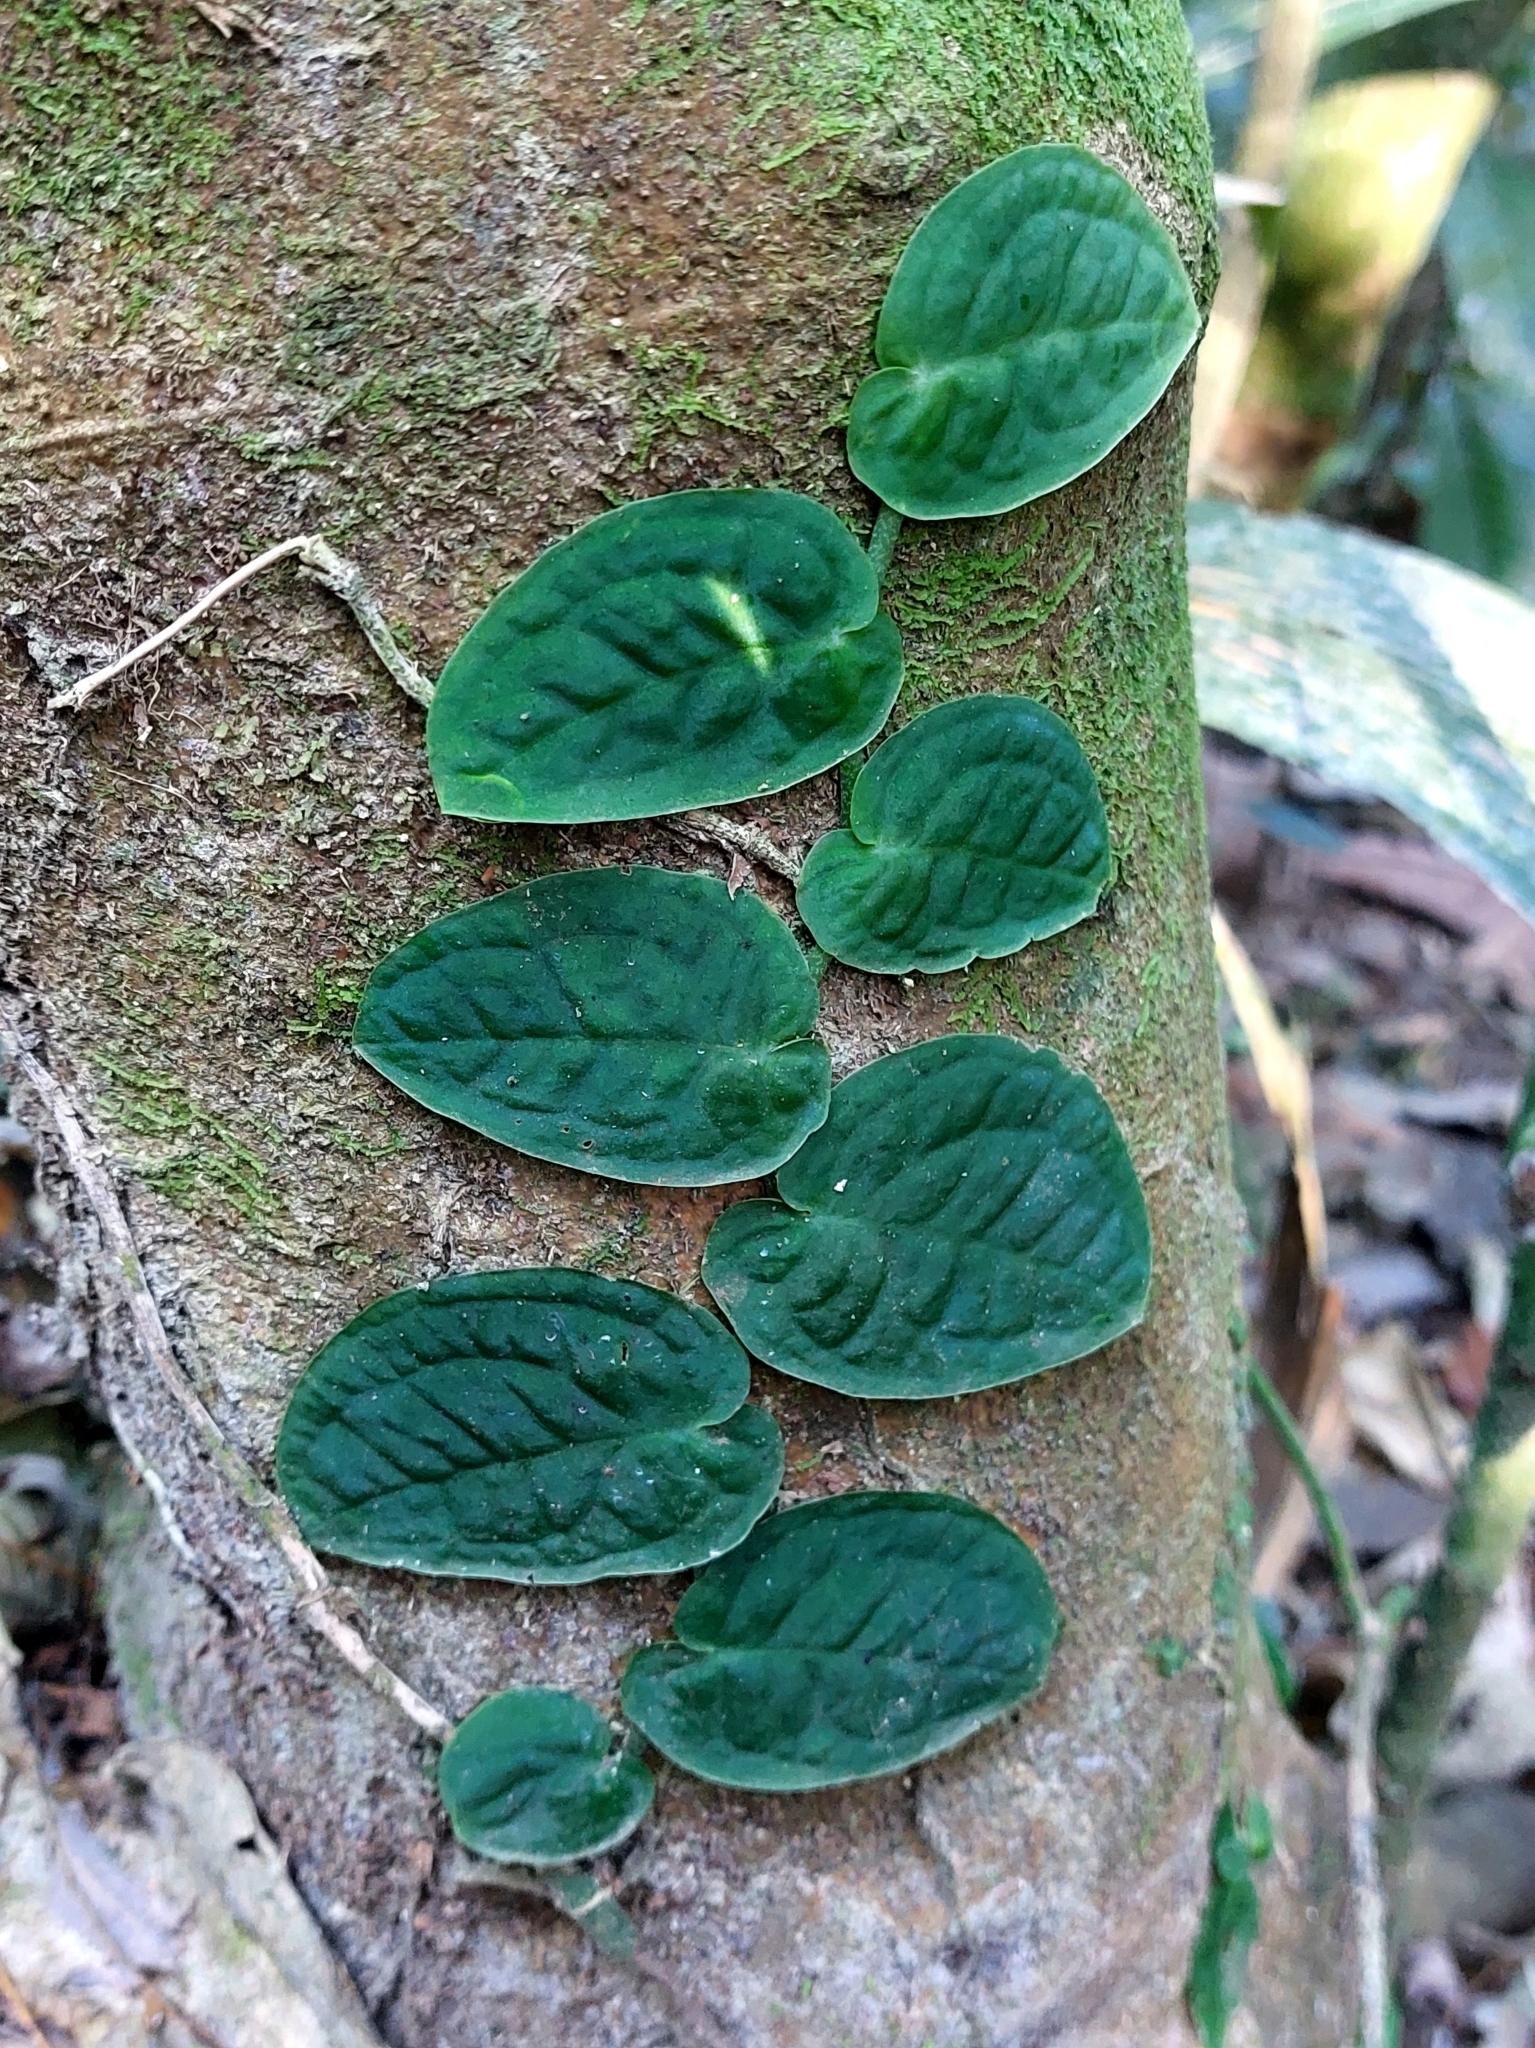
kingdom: Plantae
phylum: Tracheophyta
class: Liliopsida
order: Alismatales
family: Araceae
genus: Monstera
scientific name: Monstera dubia
